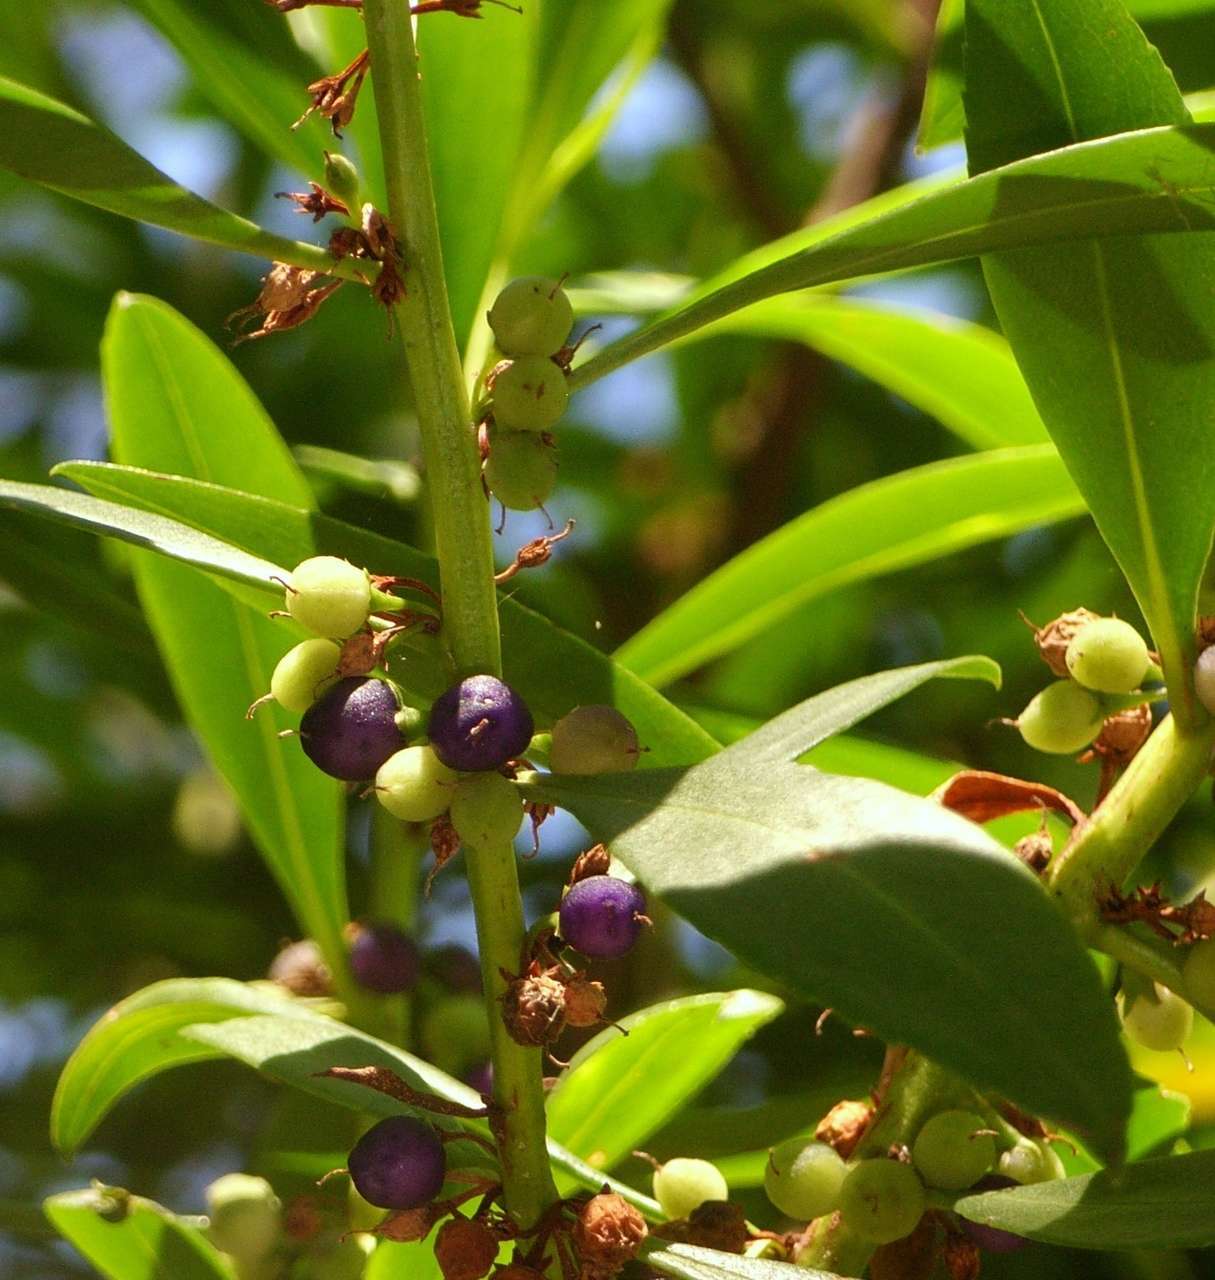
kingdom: Plantae
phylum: Tracheophyta
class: Magnoliopsida
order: Lamiales
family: Scrophulariaceae
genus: Myoporum
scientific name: Myoporum insulare
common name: Common boobialla
